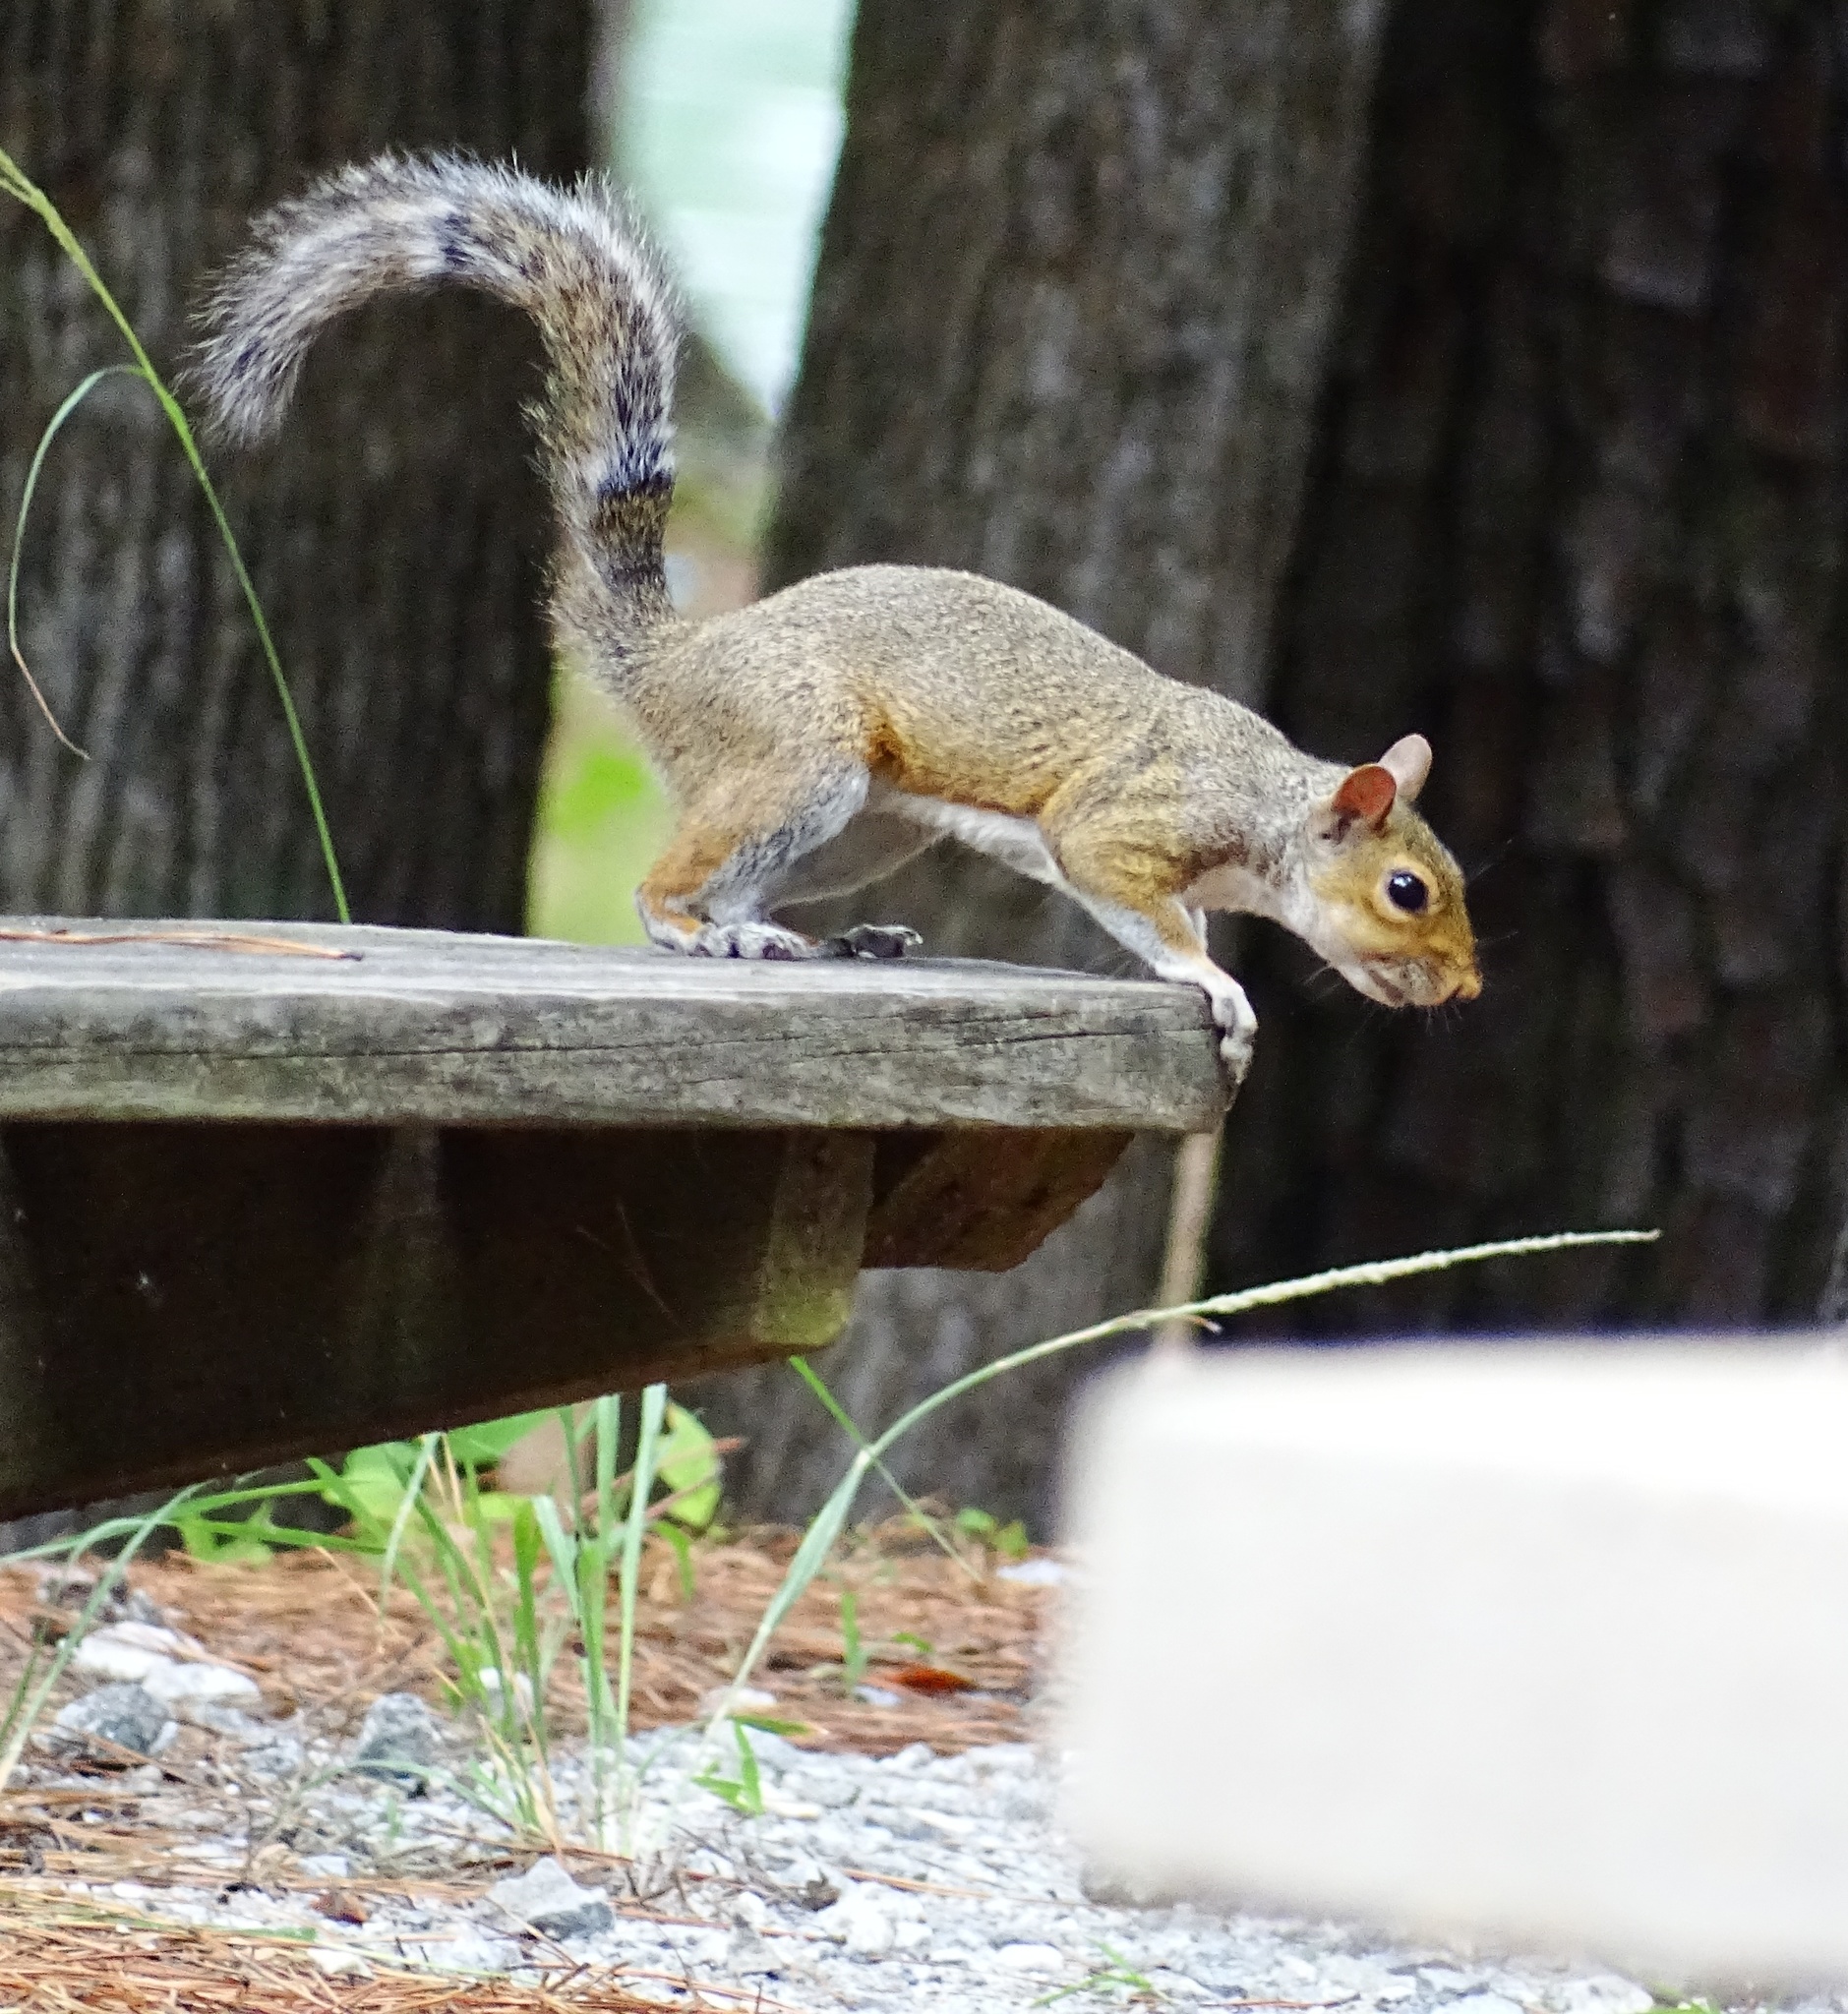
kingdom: Animalia
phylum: Chordata
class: Mammalia
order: Rodentia
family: Sciuridae
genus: Sciurus
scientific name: Sciurus carolinensis
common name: Eastern gray squirrel
